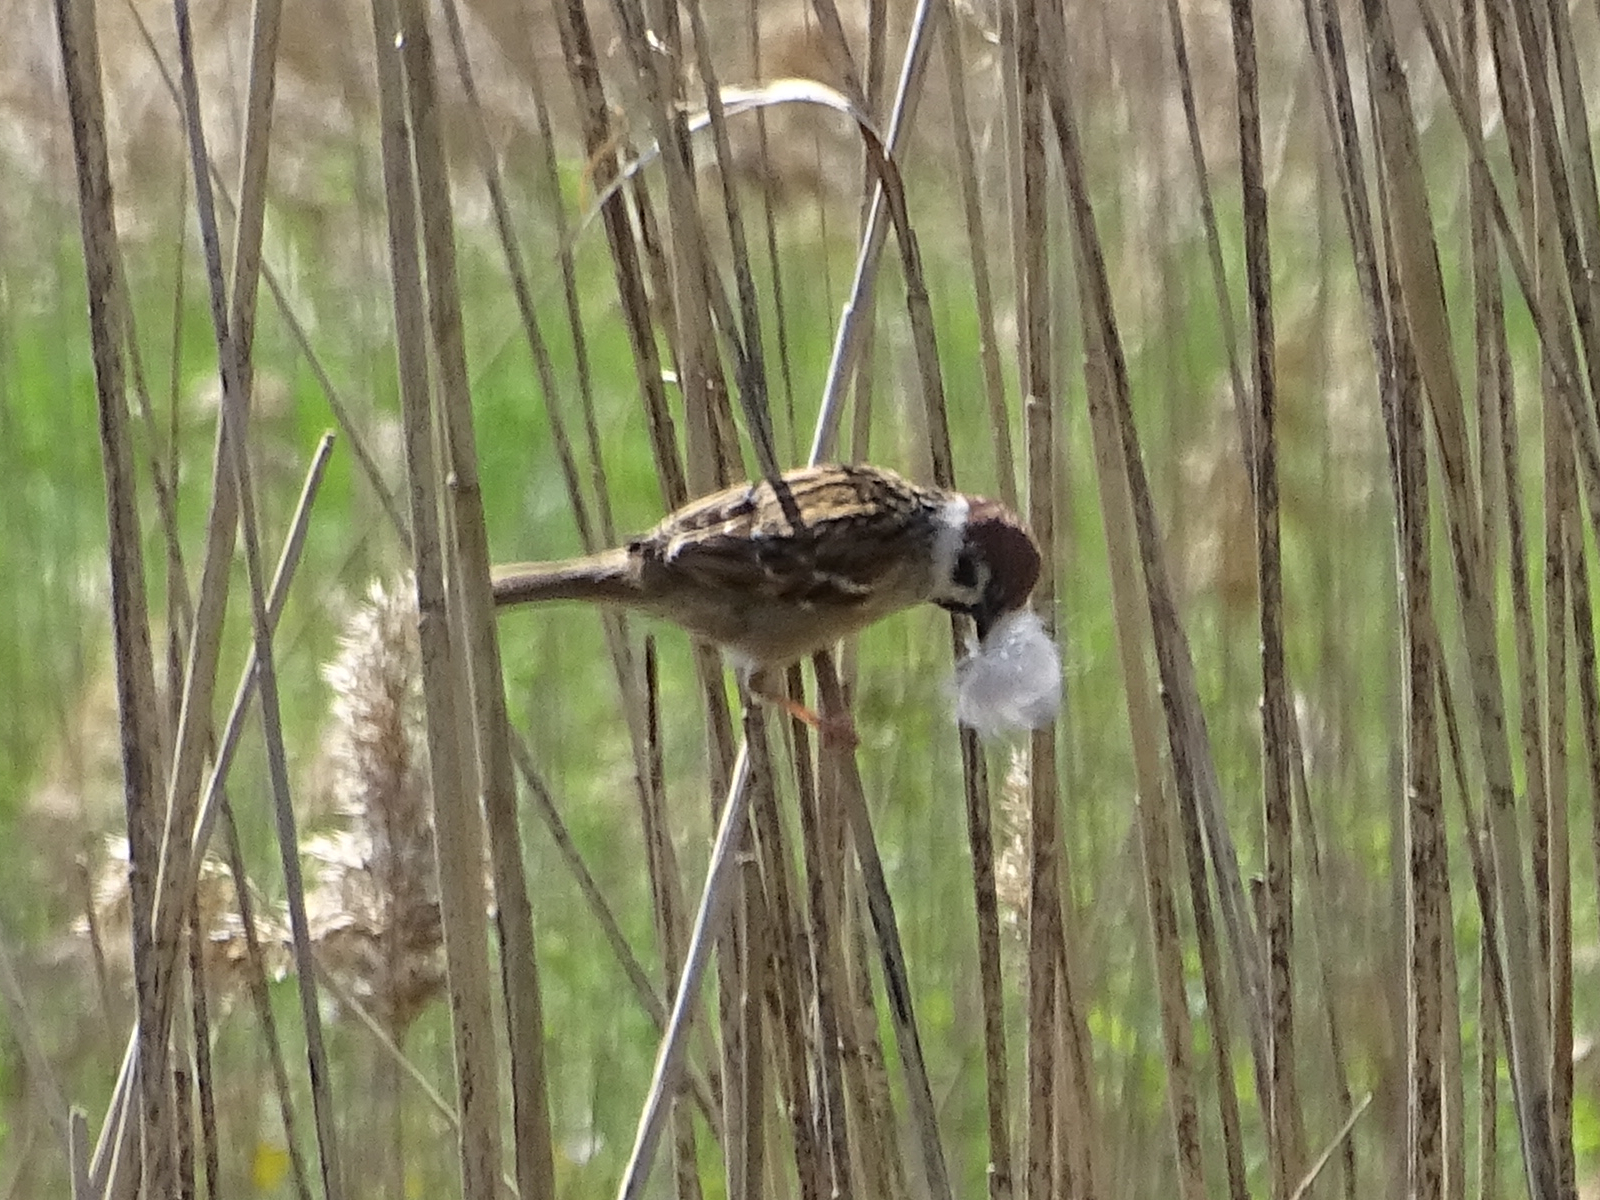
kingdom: Animalia
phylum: Chordata
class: Aves
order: Passeriformes
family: Passeridae
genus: Passer
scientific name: Passer montanus
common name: Eurasian tree sparrow
